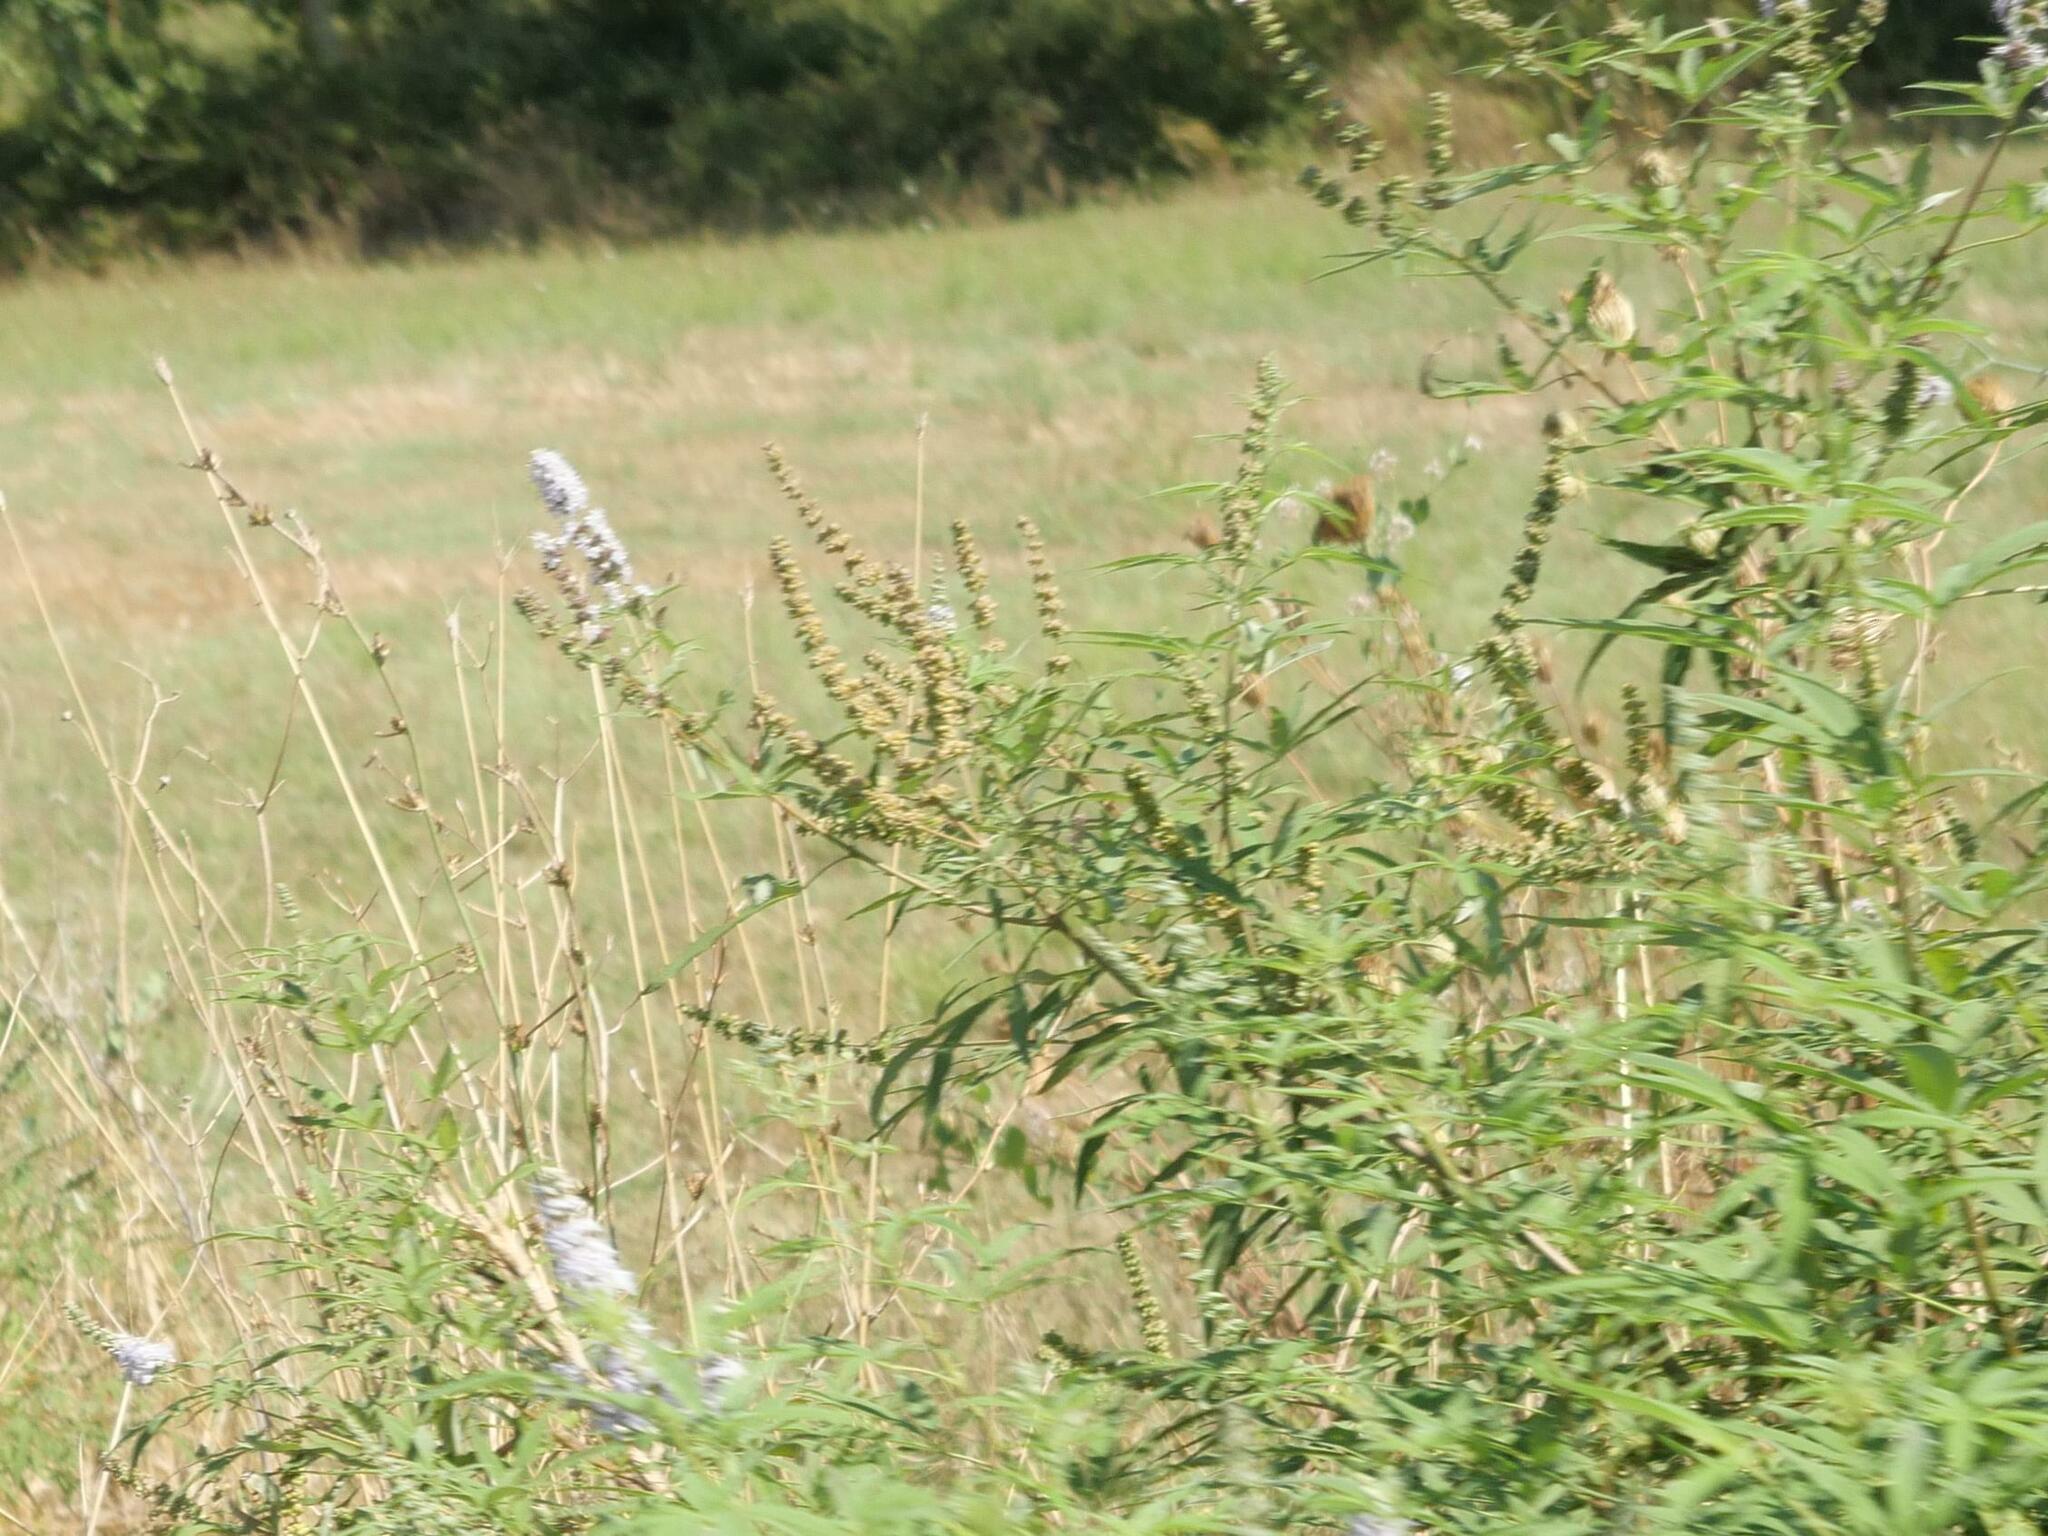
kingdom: Plantae
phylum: Tracheophyta
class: Magnoliopsida
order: Lamiales
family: Lamiaceae
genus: Vitex
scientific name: Vitex agnus-castus
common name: Chasteberry
